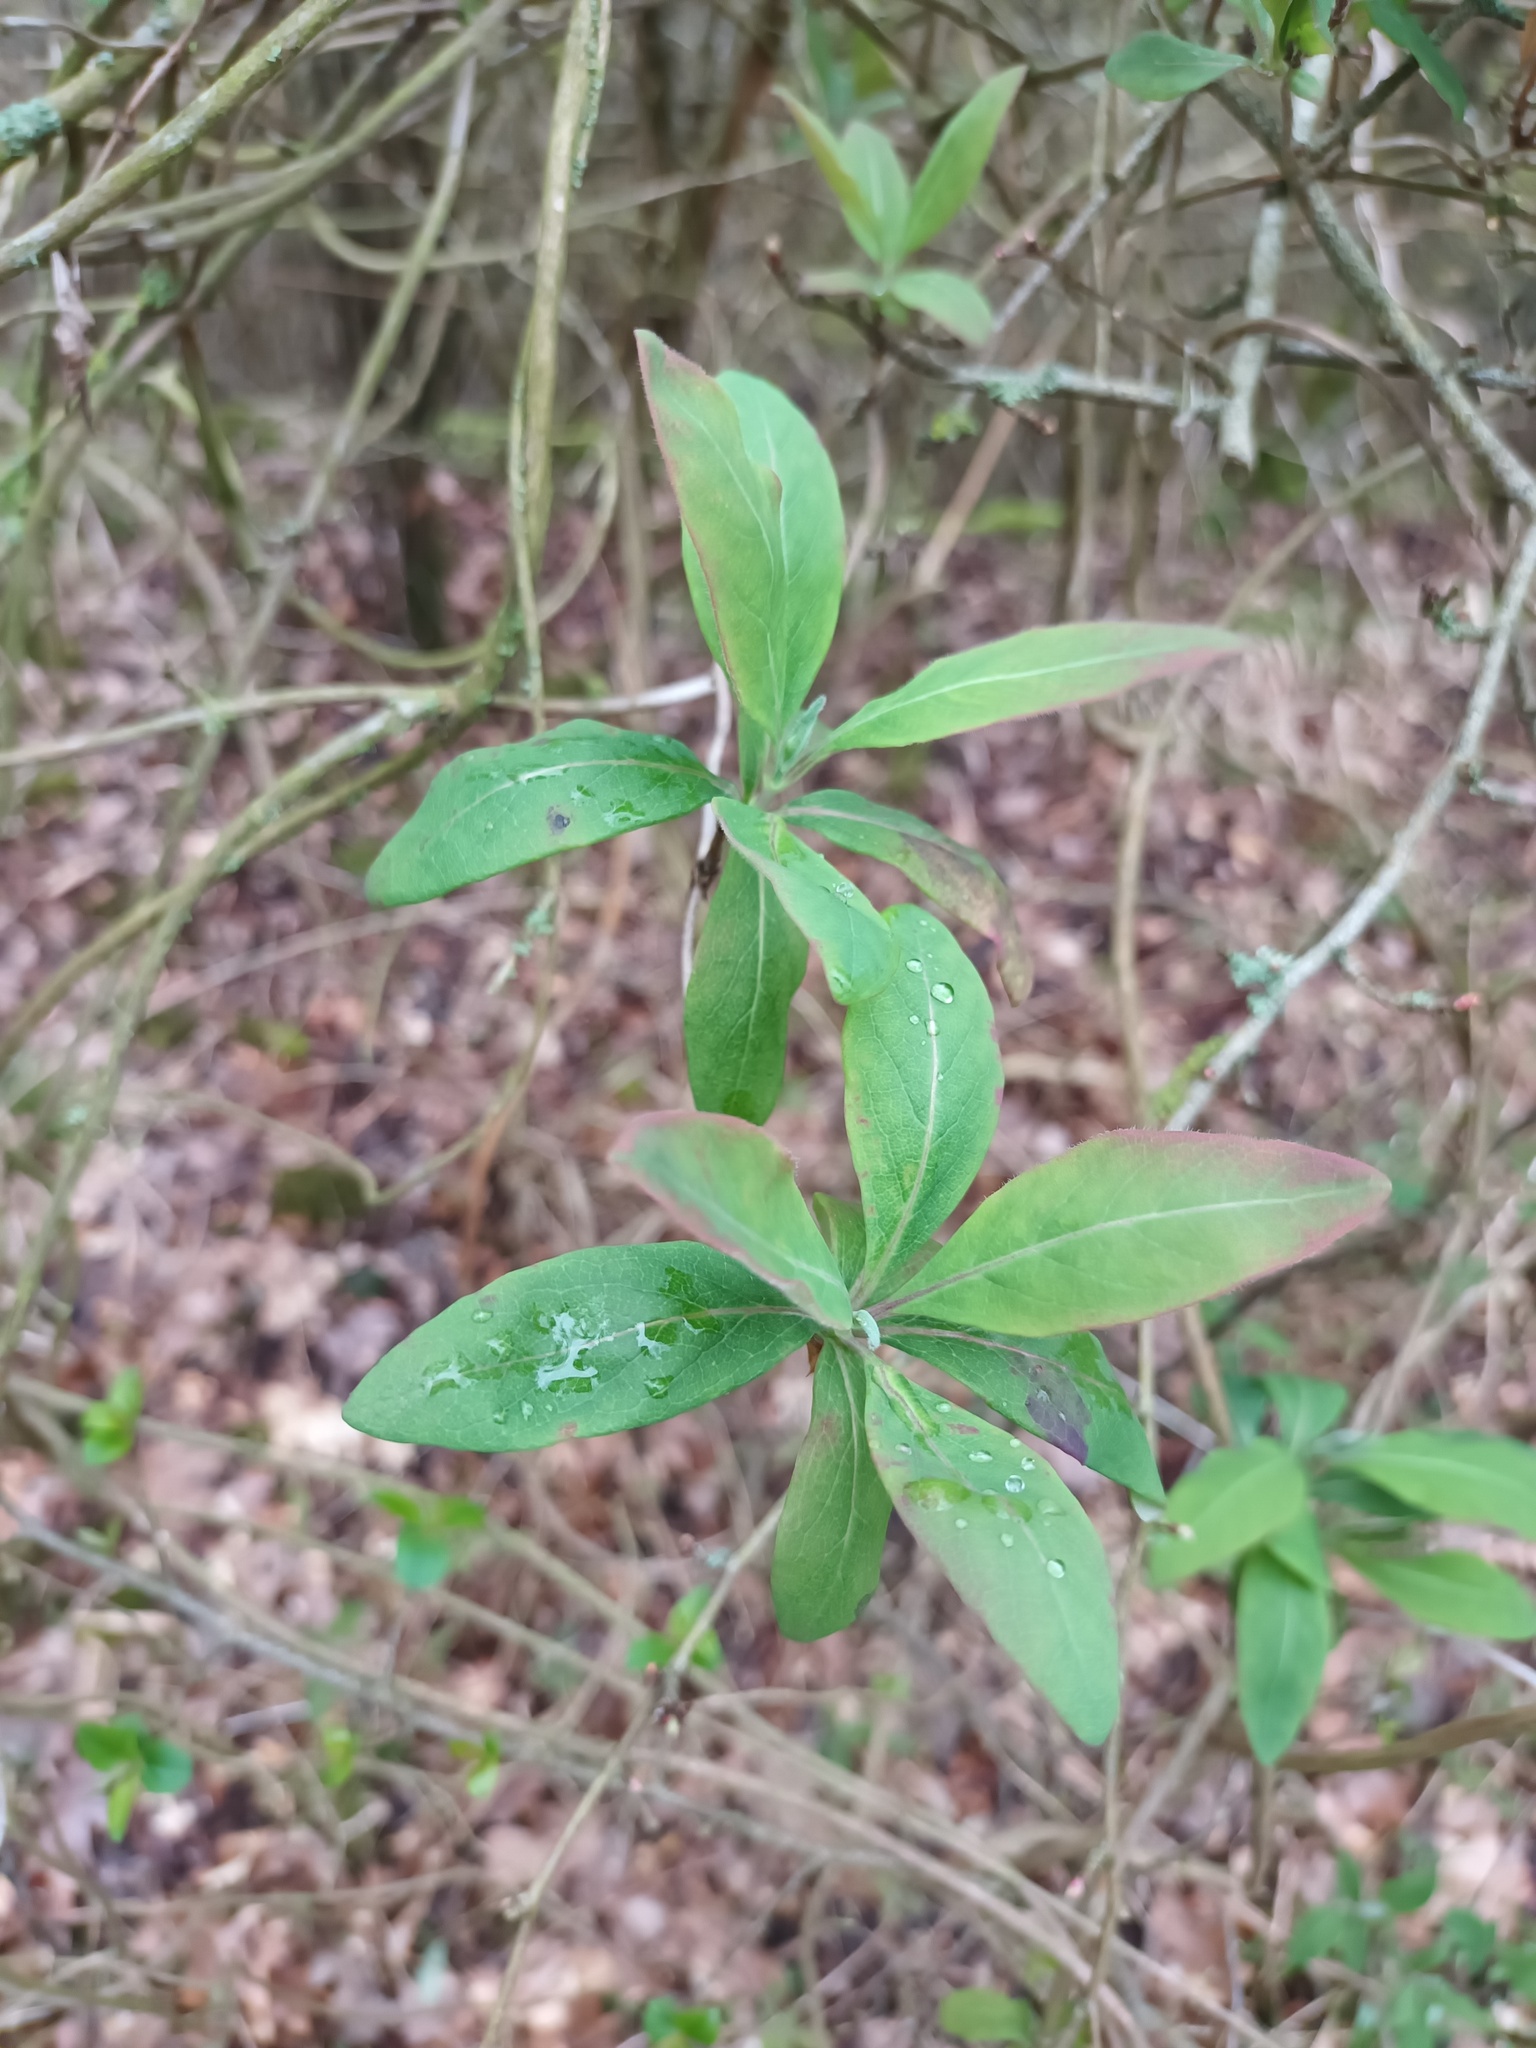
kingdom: Plantae
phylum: Tracheophyta
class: Magnoliopsida
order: Dipsacales
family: Caprifoliaceae
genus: Lonicera
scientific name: Lonicera periclymenum
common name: European honeysuckle
